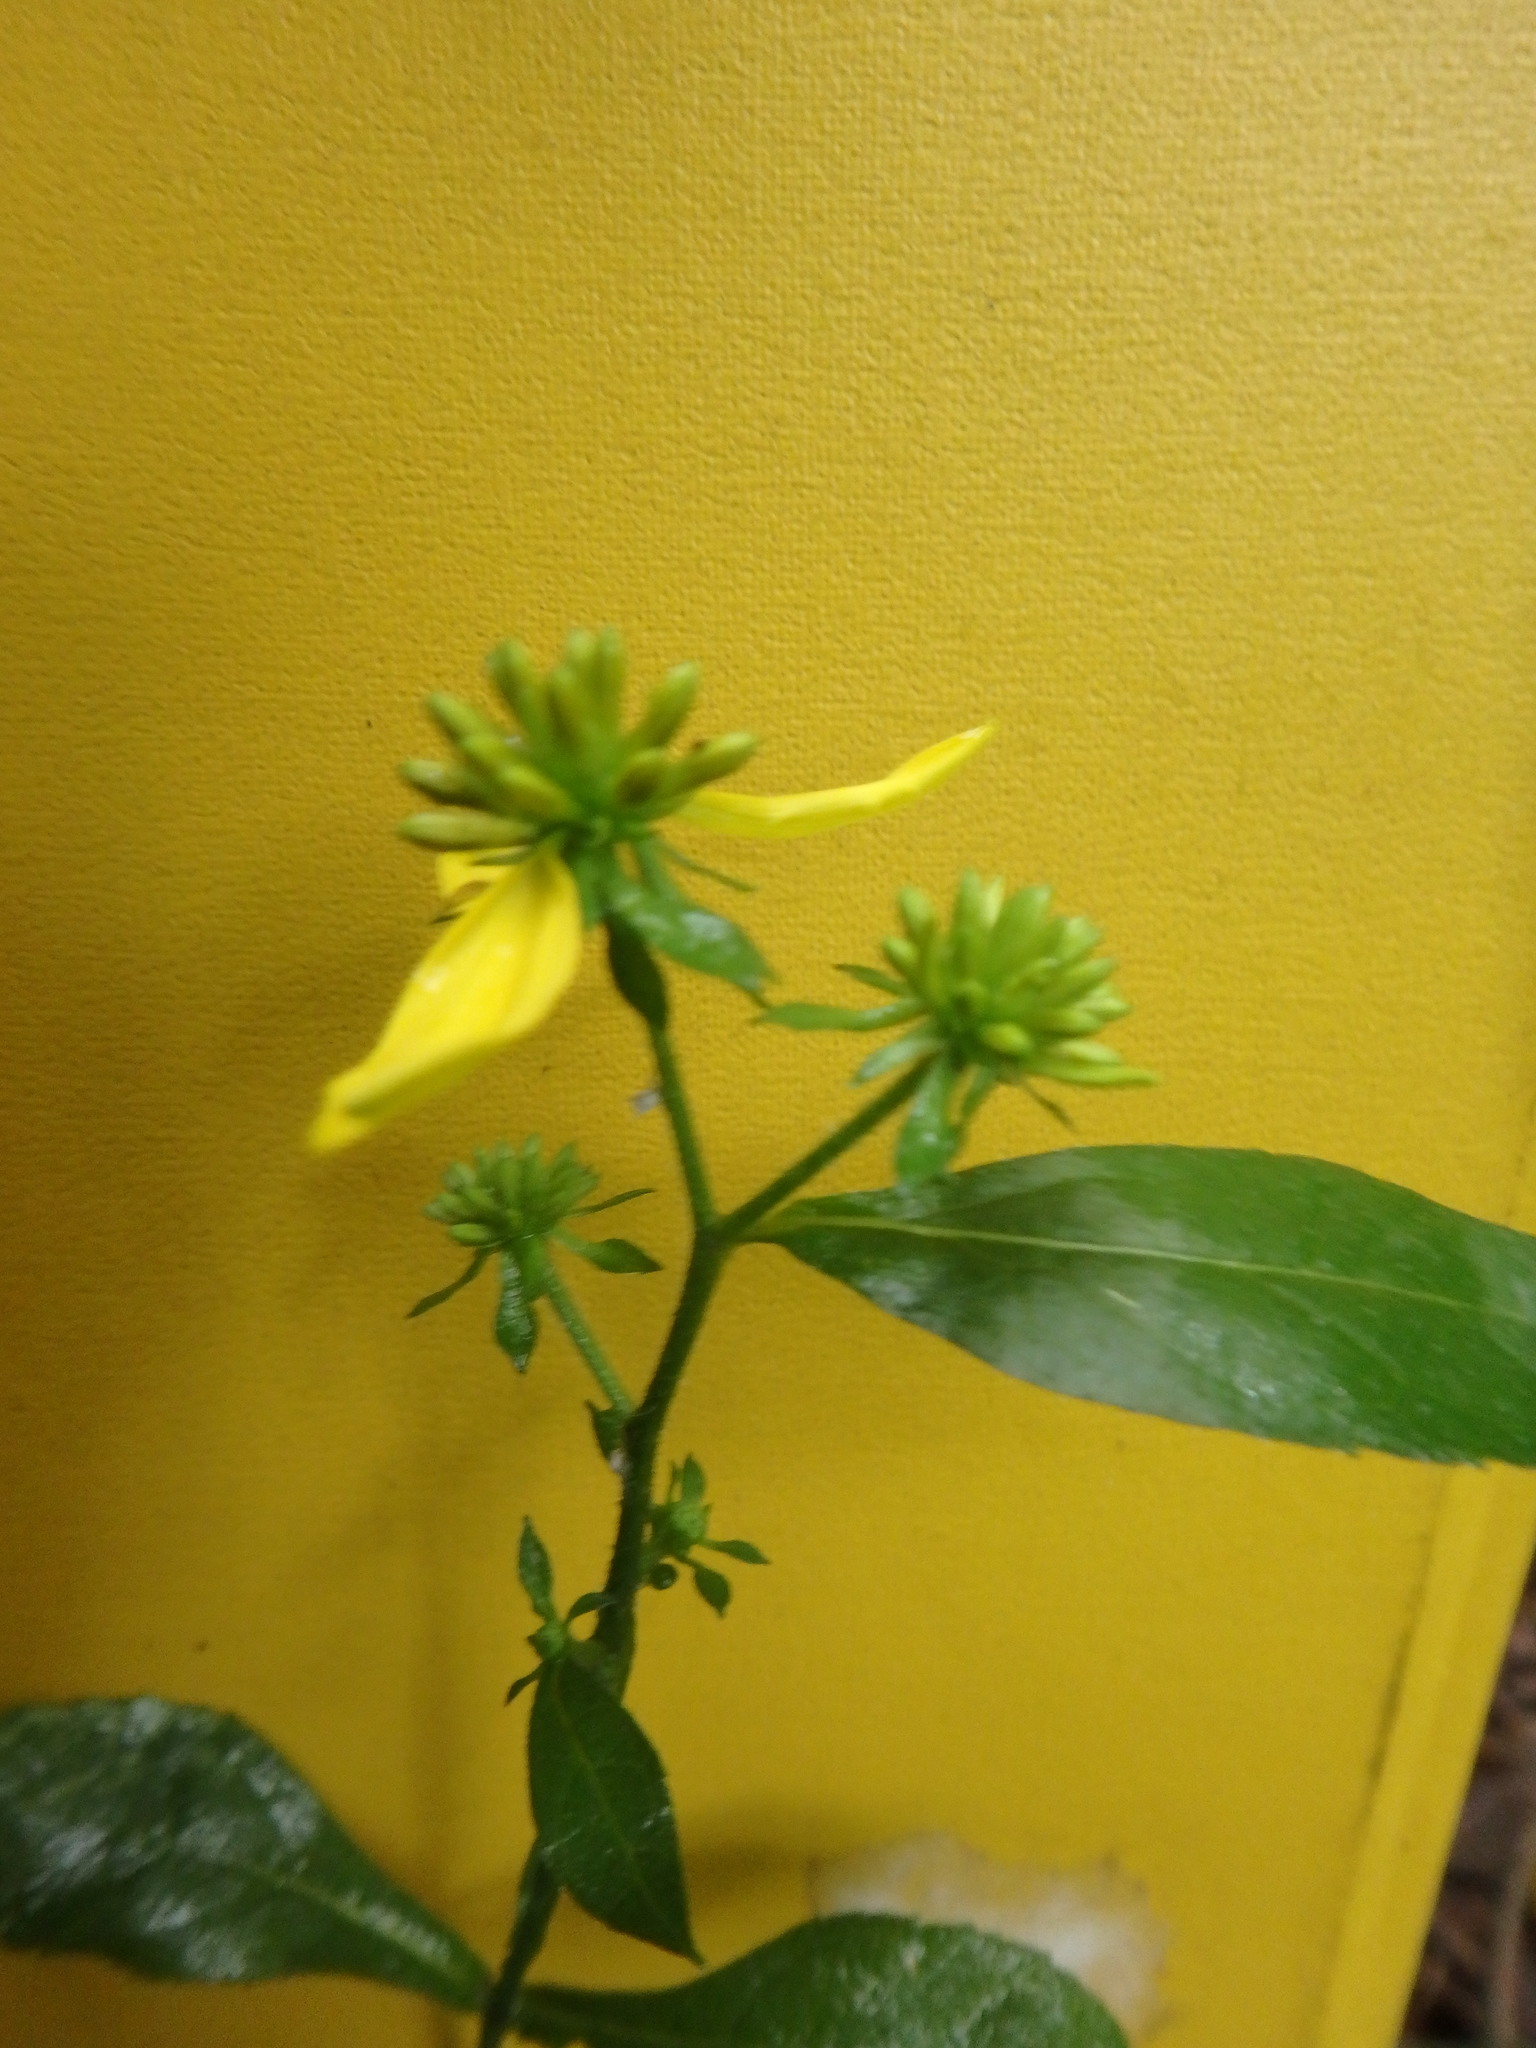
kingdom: Plantae
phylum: Tracheophyta
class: Magnoliopsida
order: Asterales
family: Asteraceae
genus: Verbesina
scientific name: Verbesina alternifolia
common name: Wingstem
